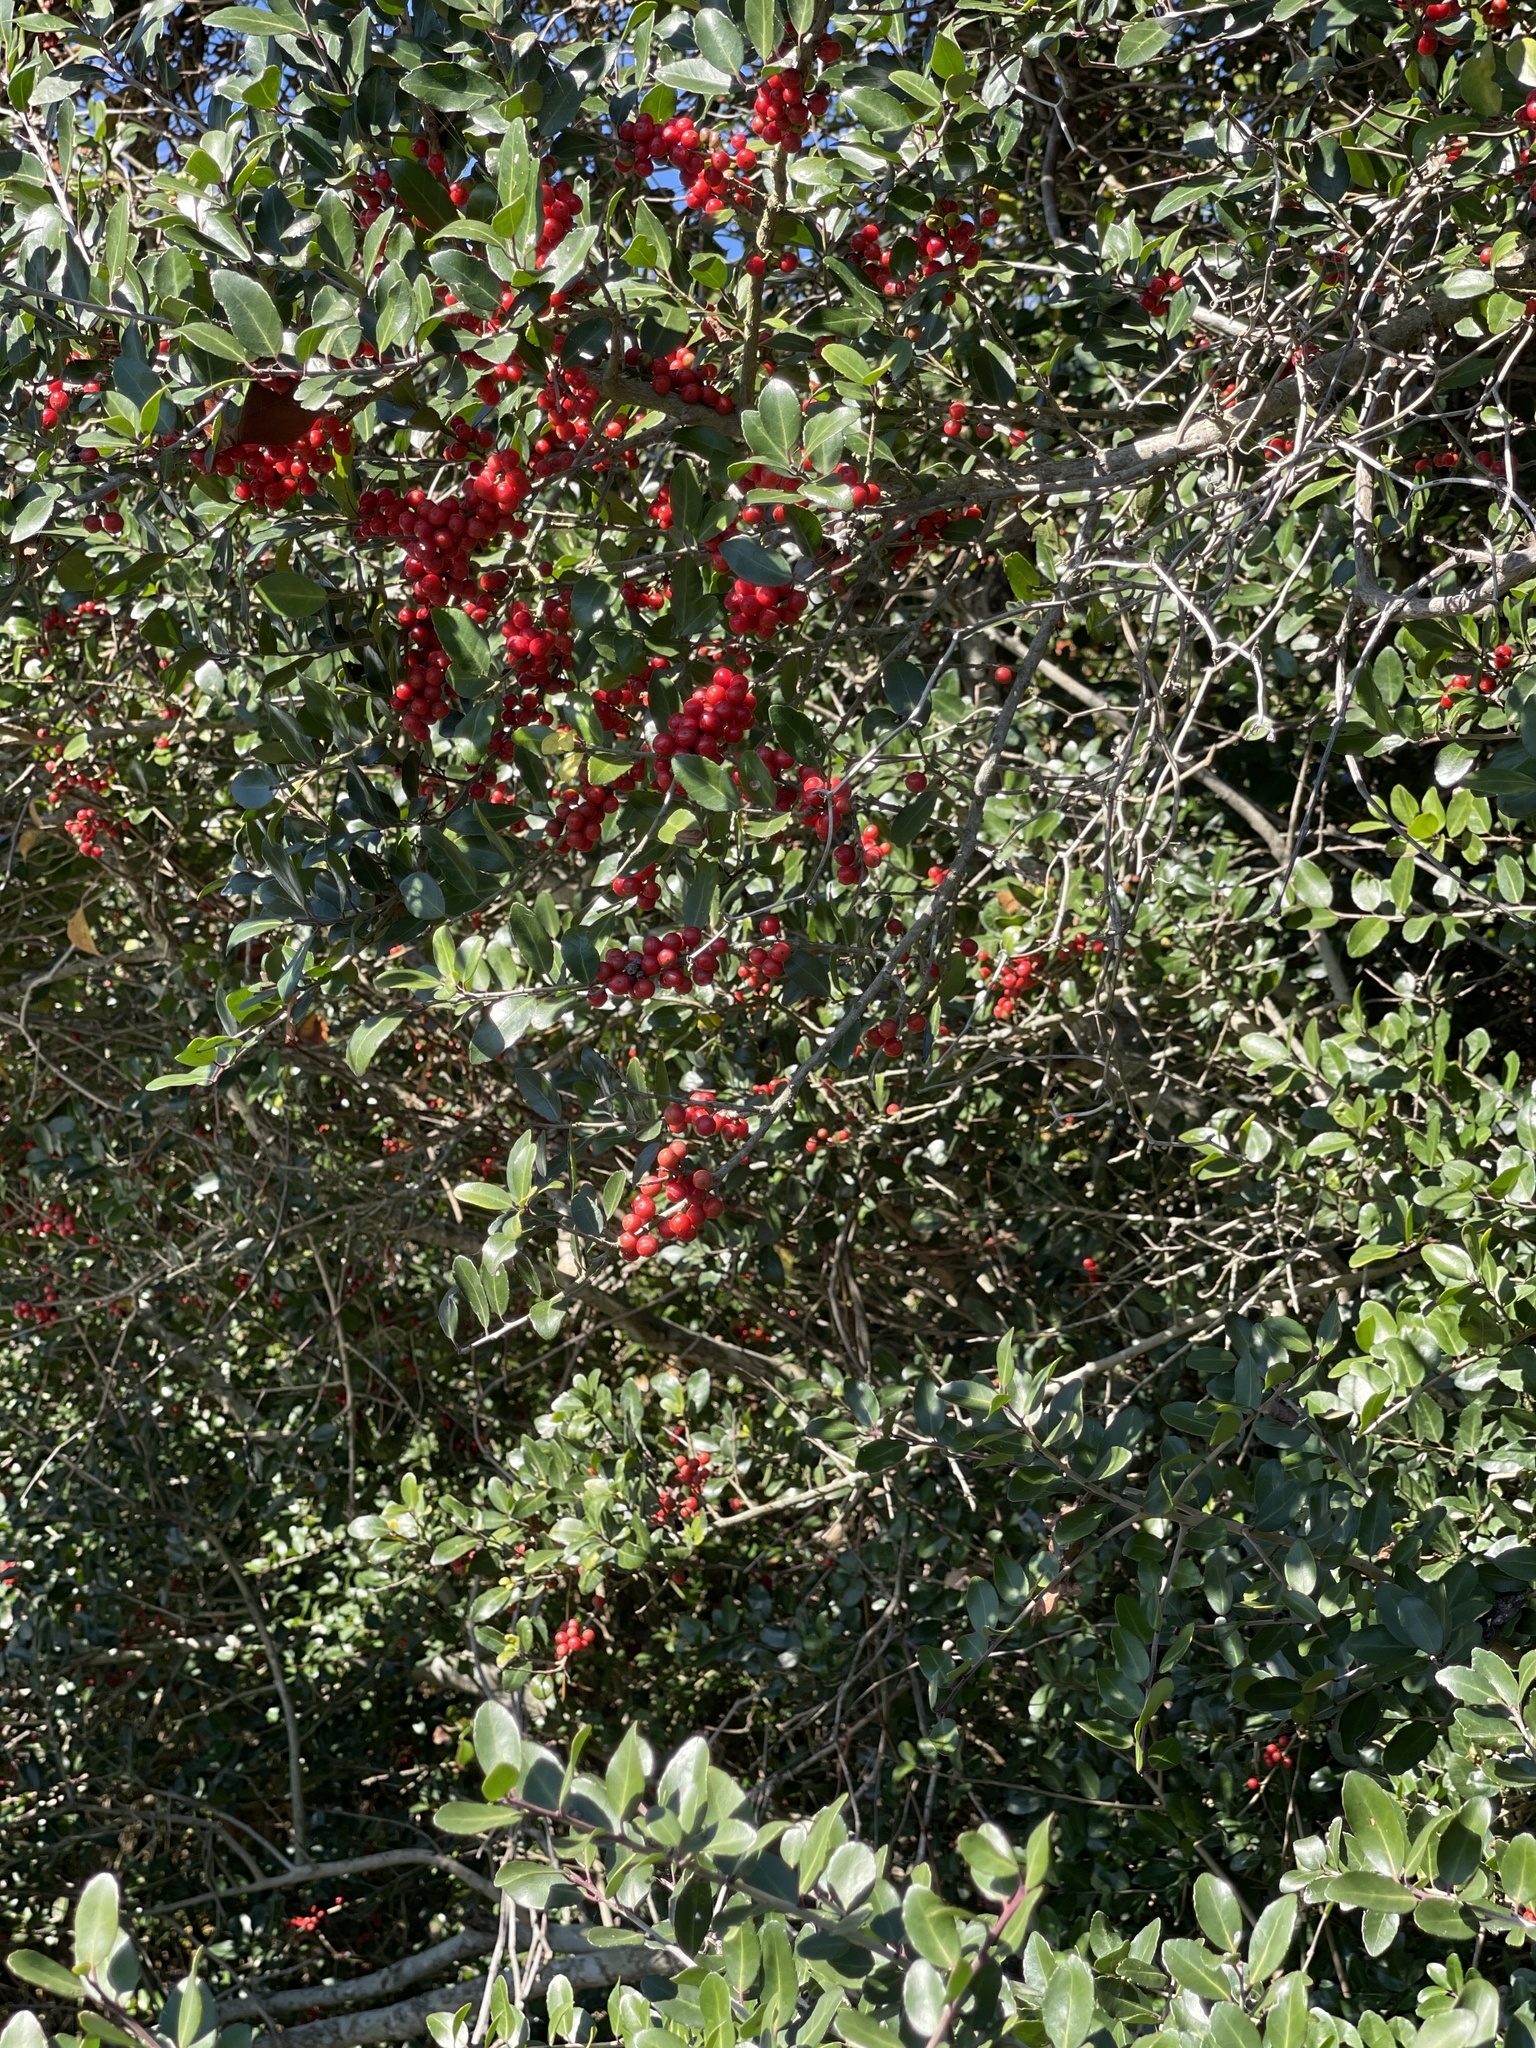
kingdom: Plantae
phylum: Tracheophyta
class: Magnoliopsida
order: Aquifoliales
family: Aquifoliaceae
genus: Ilex
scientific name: Ilex vomitoria
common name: Yaupon holly
